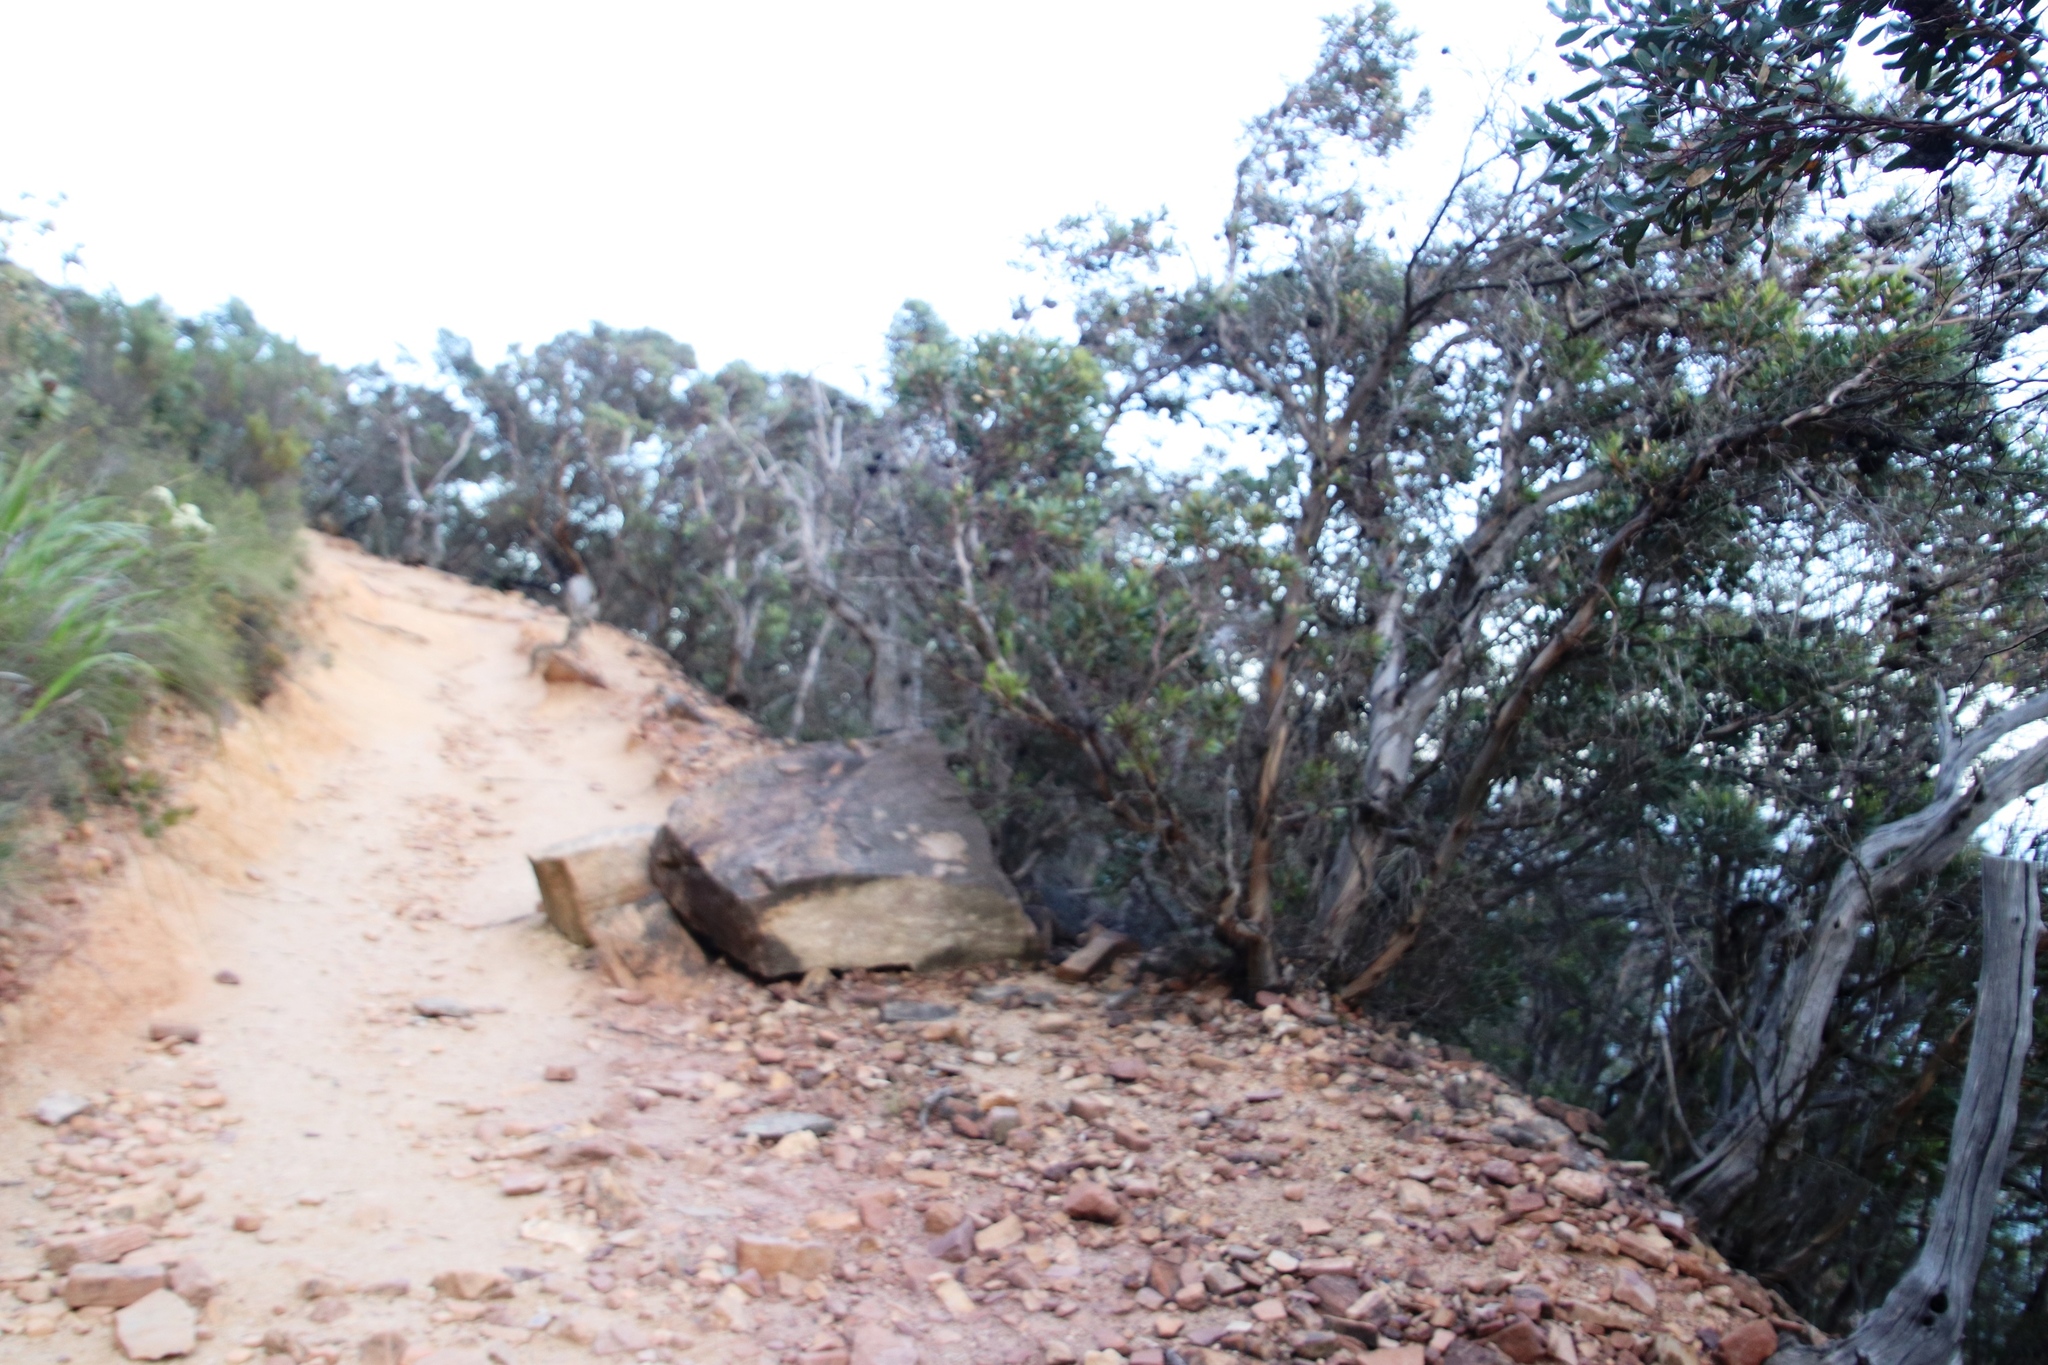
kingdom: Plantae
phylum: Tracheophyta
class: Magnoliopsida
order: Myrtales
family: Myrtaceae
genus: Eucalyptus
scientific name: Eucalyptus conferruminata
